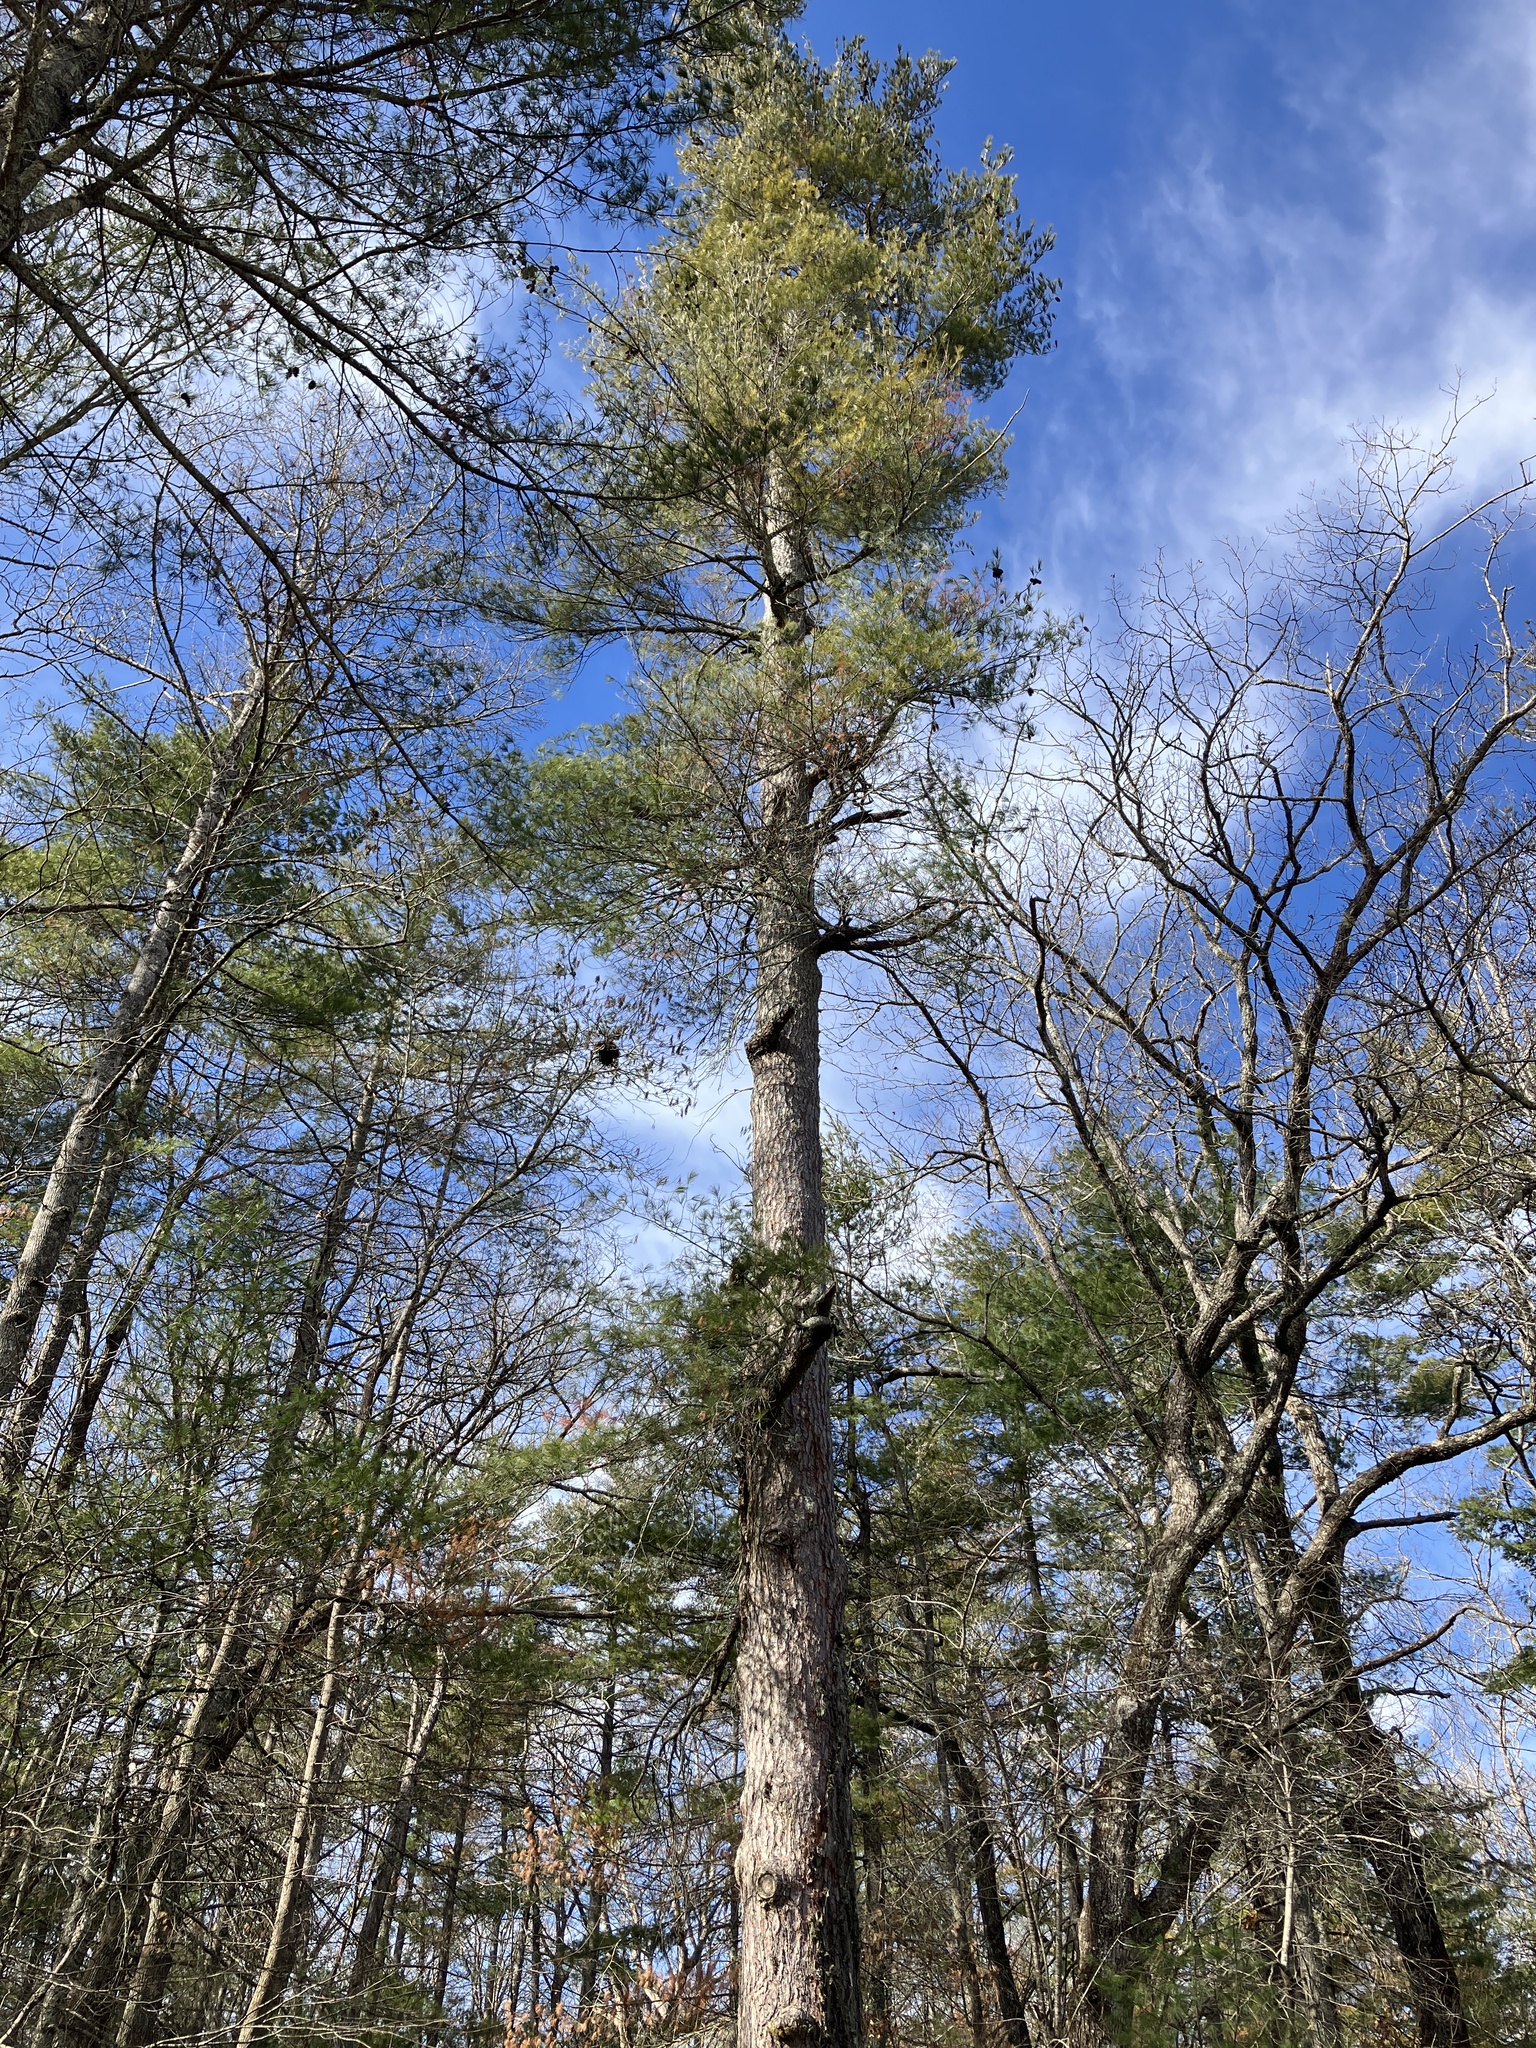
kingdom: Plantae
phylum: Tracheophyta
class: Pinopsida
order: Pinales
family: Pinaceae
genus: Pinus
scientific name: Pinus strobus
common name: Weymouth pine
